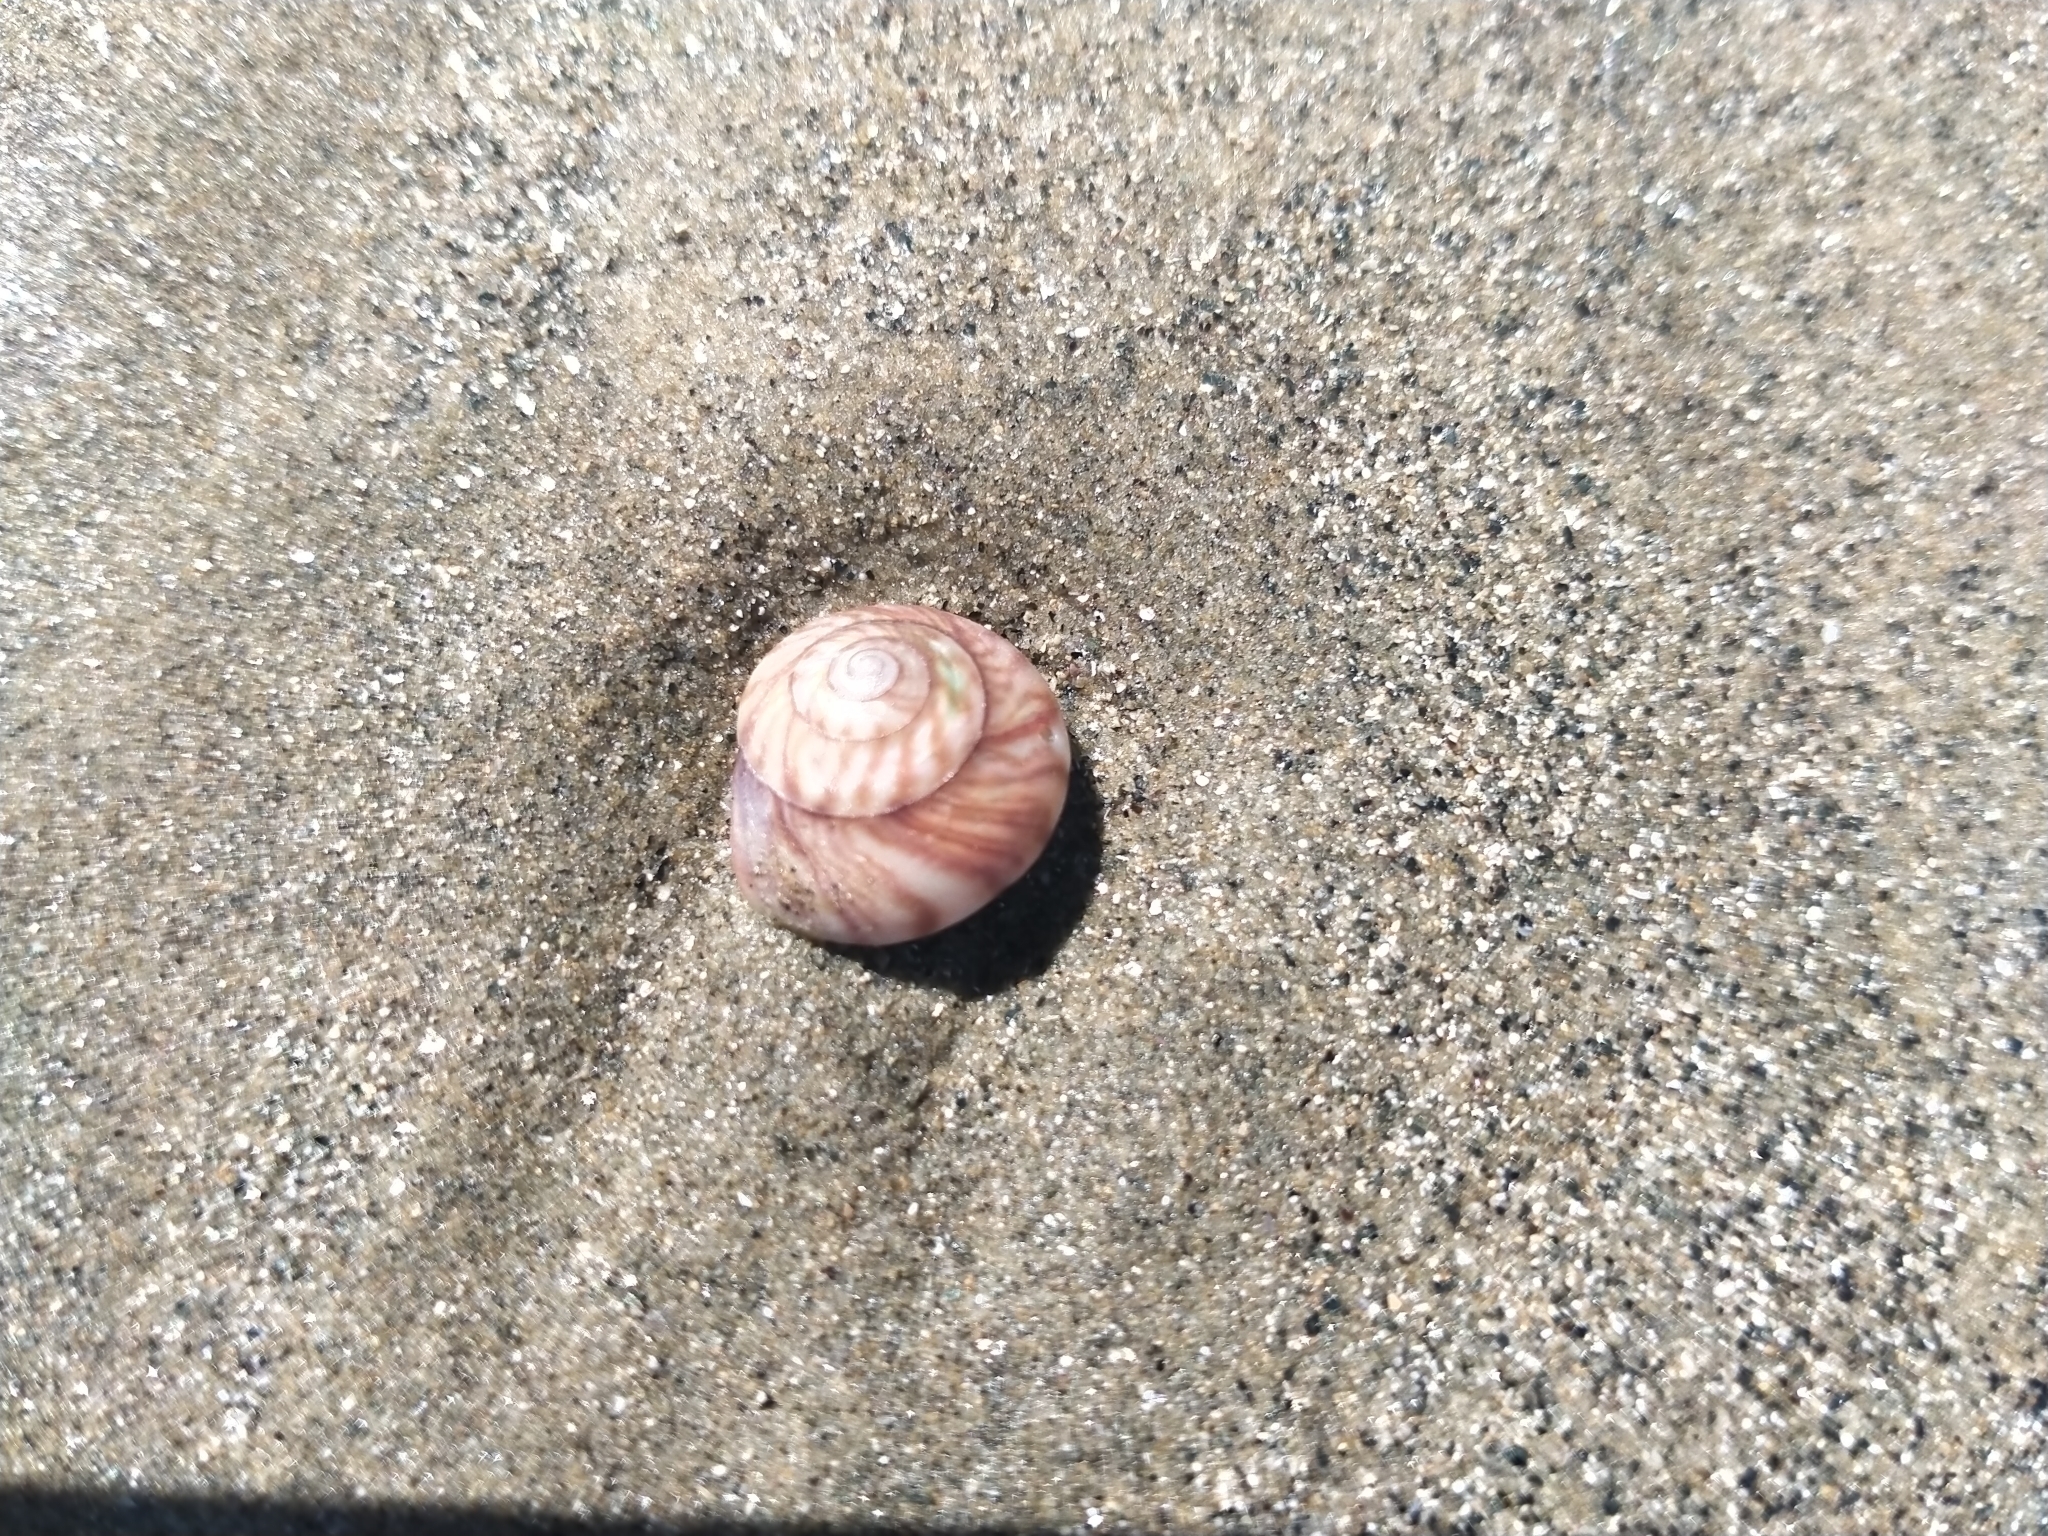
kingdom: Animalia
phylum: Mollusca
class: Gastropoda
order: Trochida
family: Trochidae
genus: Zethalia
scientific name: Zethalia zelandica
